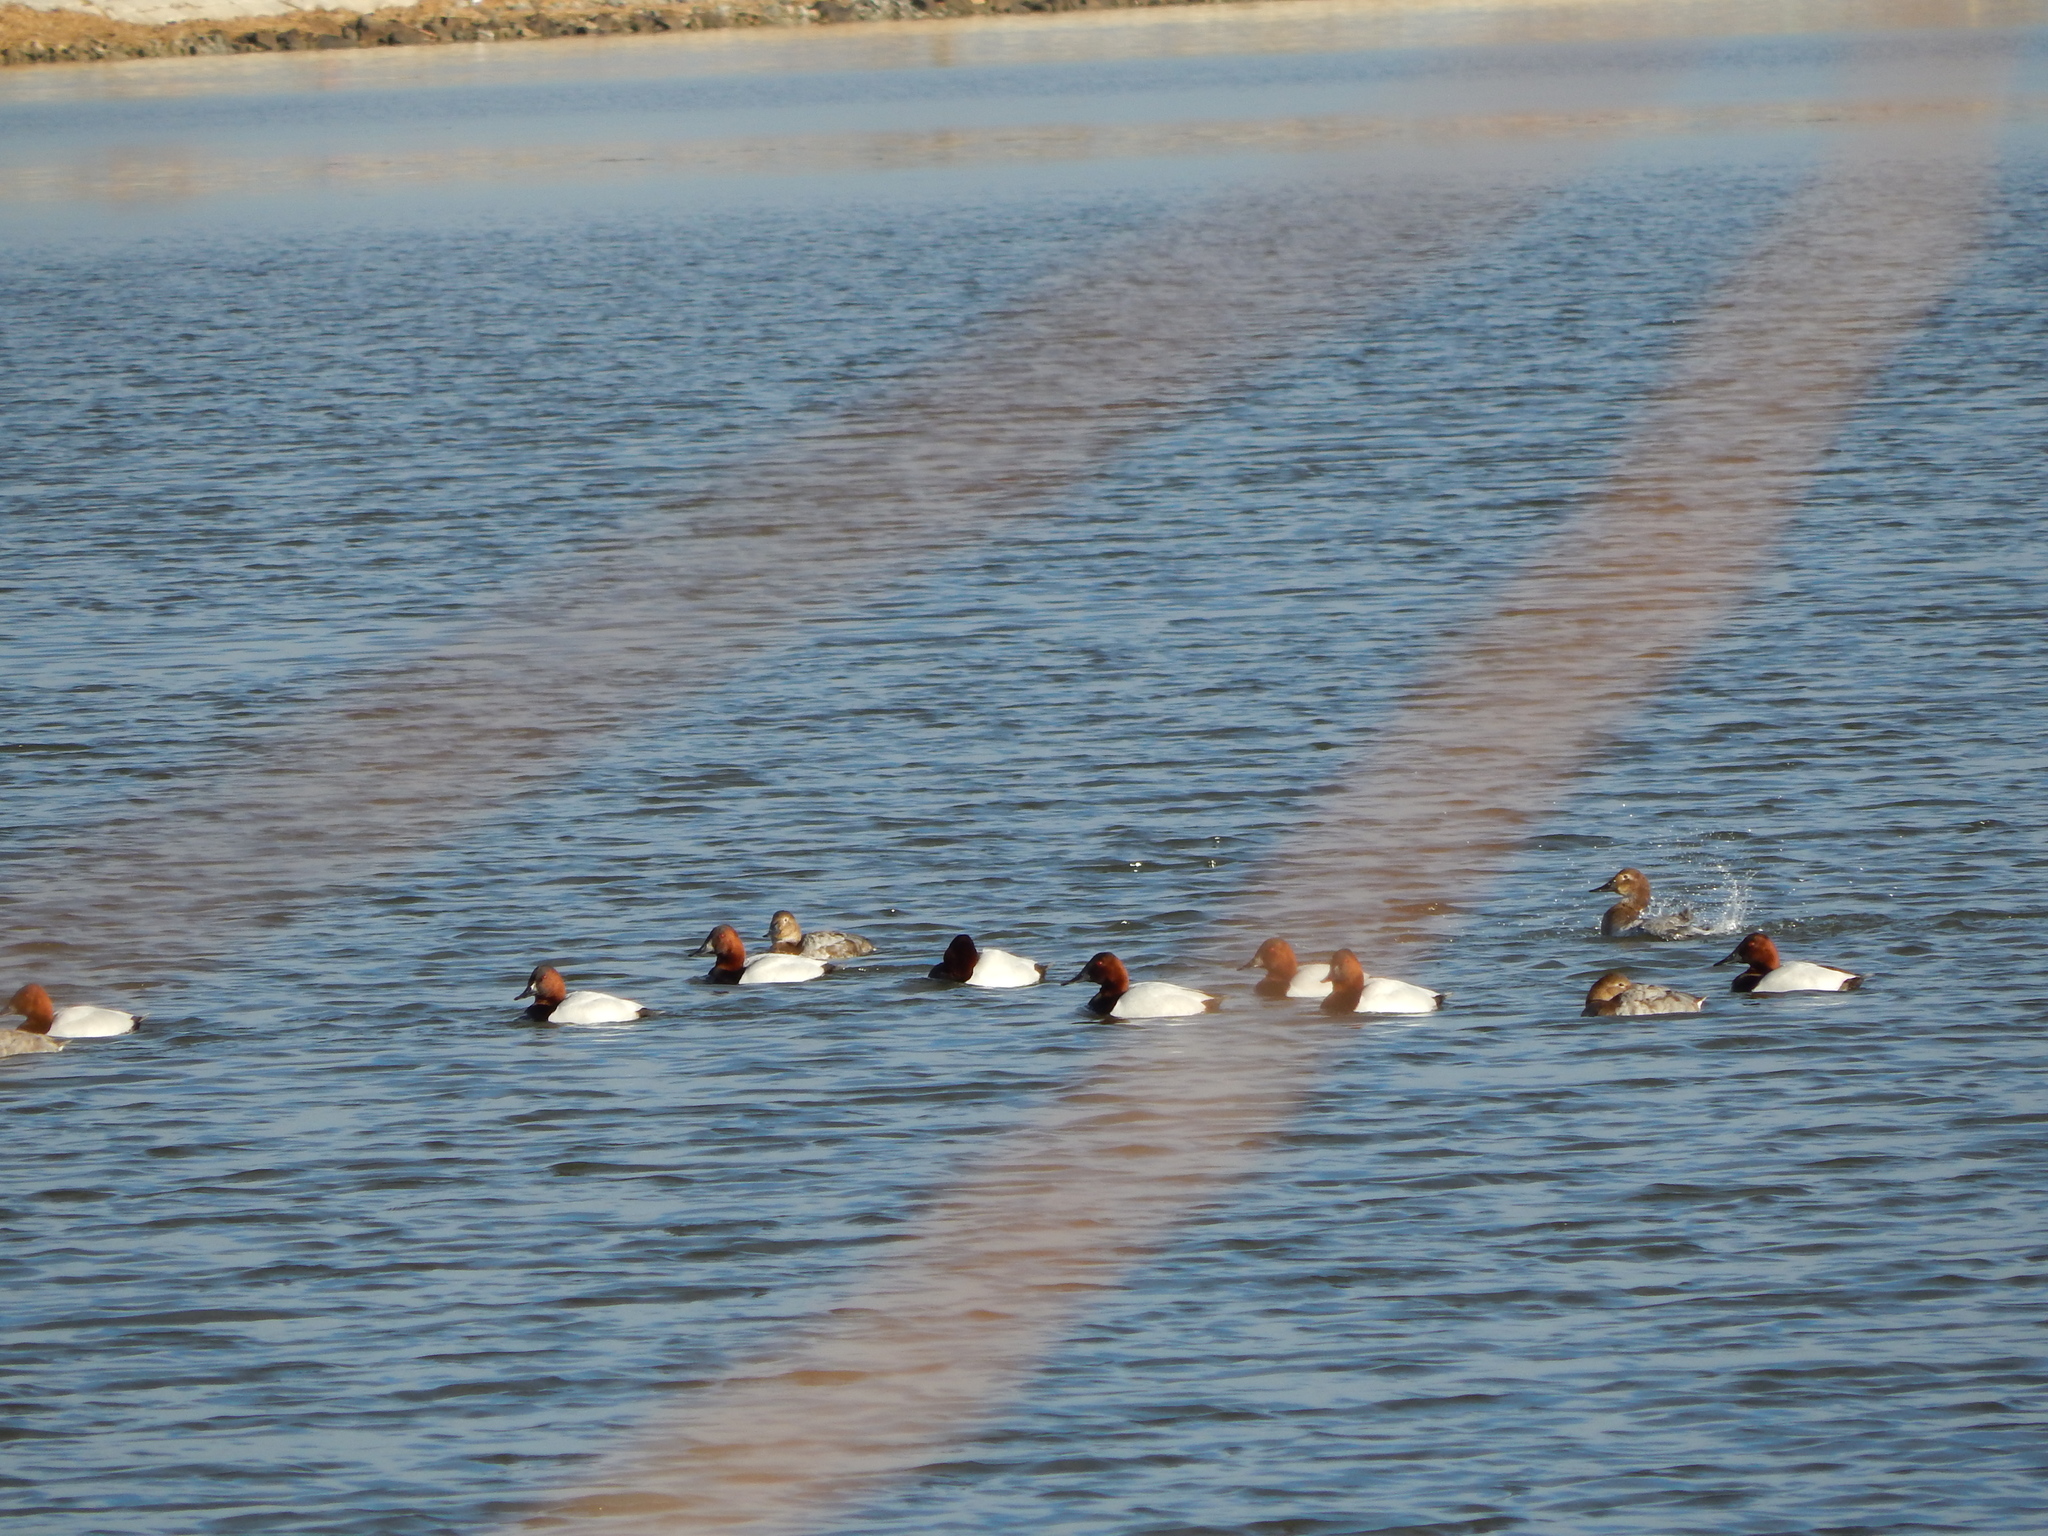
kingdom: Animalia
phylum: Chordata
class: Aves
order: Anseriformes
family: Anatidae
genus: Aythya
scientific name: Aythya valisineria
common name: Canvasback
